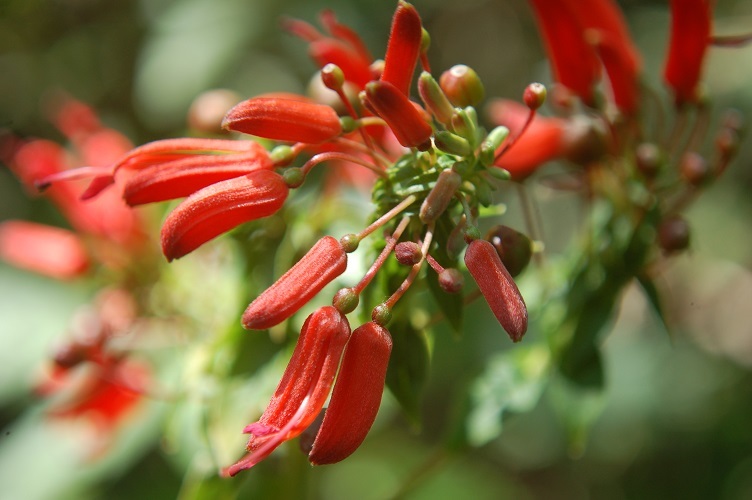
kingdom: Plantae
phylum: Tracheophyta
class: Magnoliopsida
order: Myrtales
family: Onagraceae
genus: Lopezia
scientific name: Lopezia grandiflora
